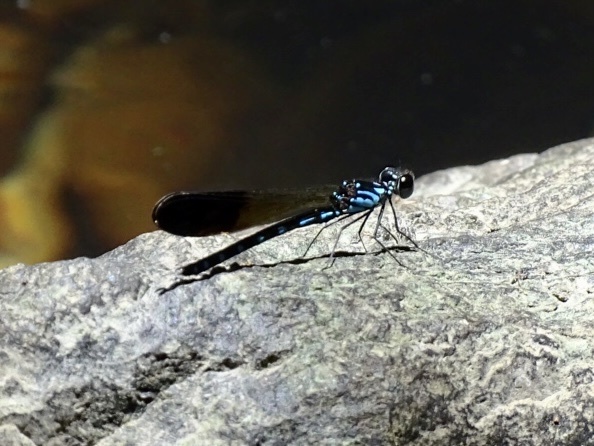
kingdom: Animalia
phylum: Arthropoda
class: Insecta
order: Odonata
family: Chlorocyphidae
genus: Heliocypha
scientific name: Heliocypha perforata
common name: Common blue jewel
